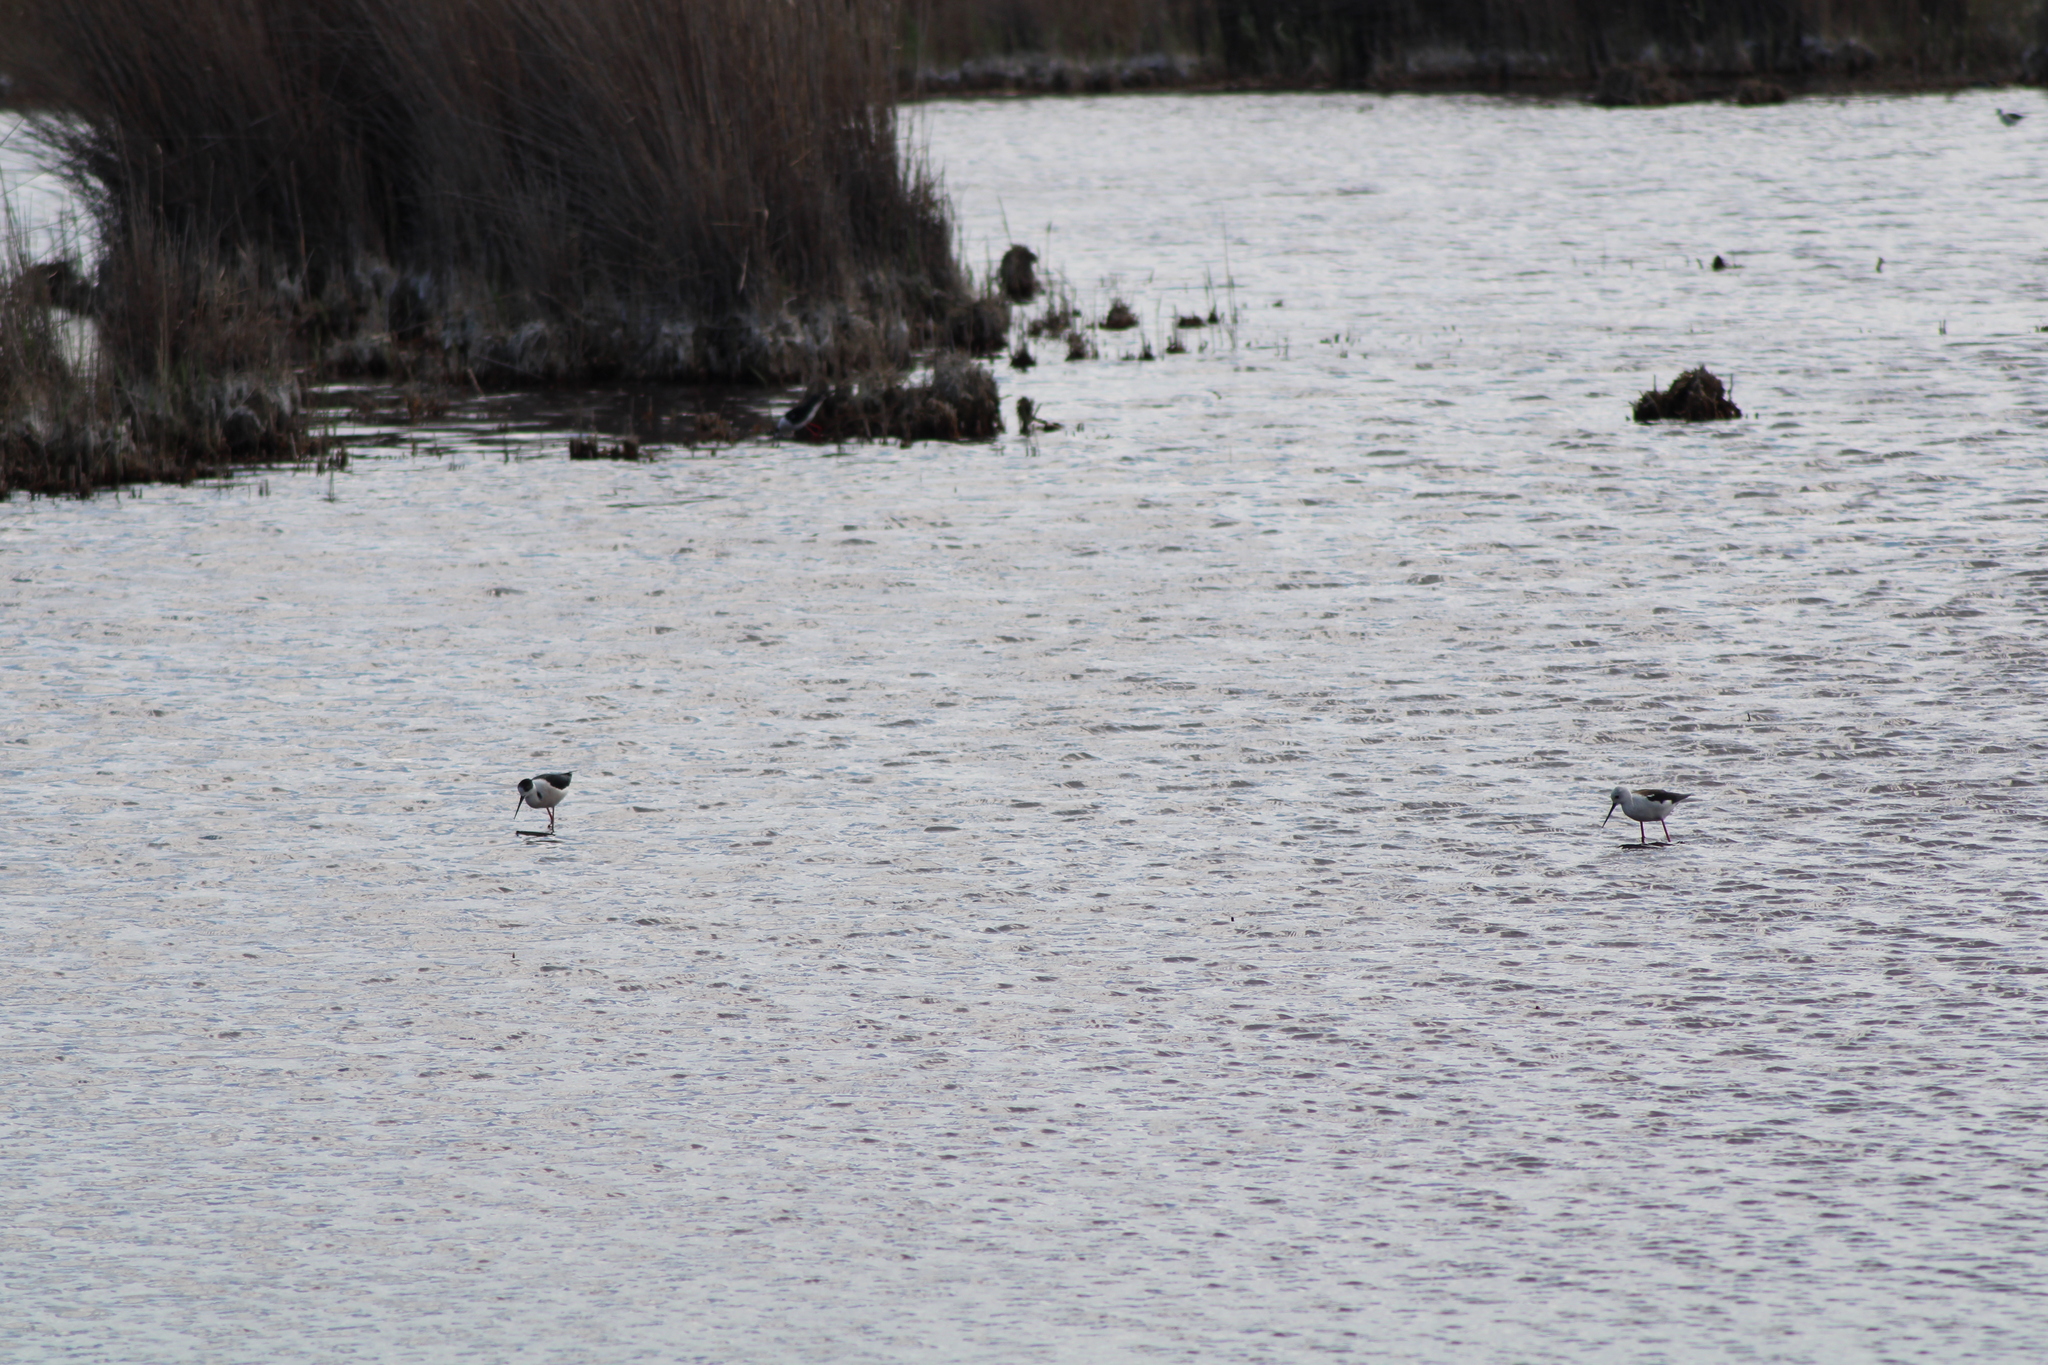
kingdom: Animalia
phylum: Chordata
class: Aves
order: Charadriiformes
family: Recurvirostridae
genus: Himantopus
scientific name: Himantopus himantopus
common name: Black-winged stilt
